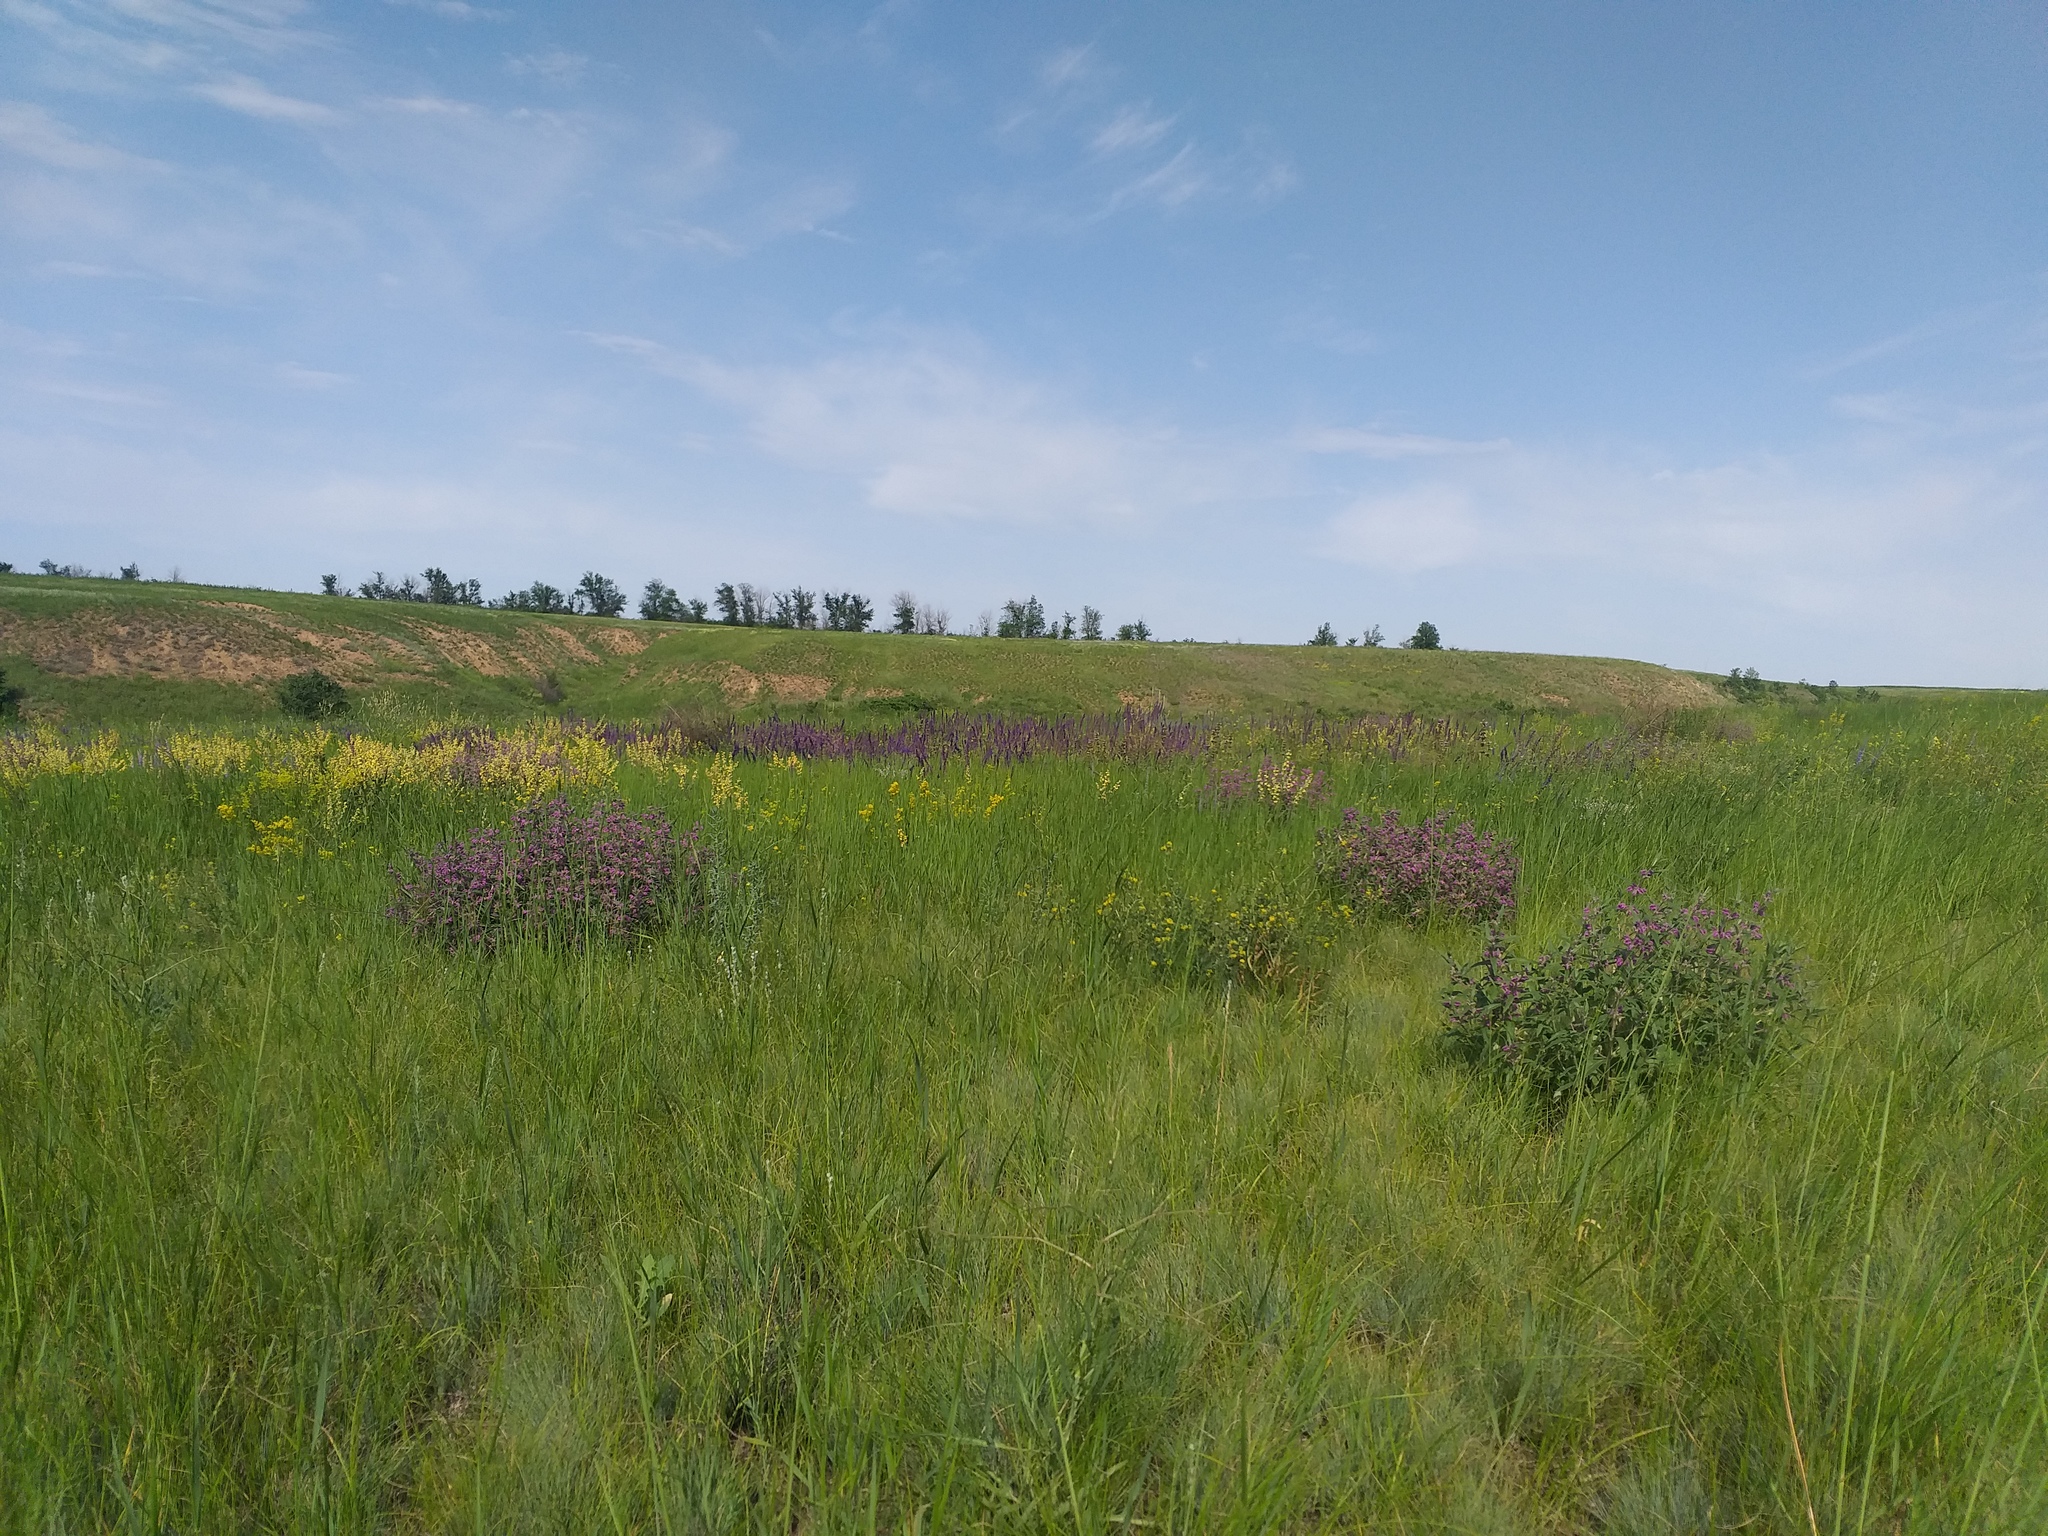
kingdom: Plantae
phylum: Tracheophyta
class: Magnoliopsida
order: Lamiales
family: Lamiaceae
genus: Phlomis
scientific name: Phlomis herba-venti
